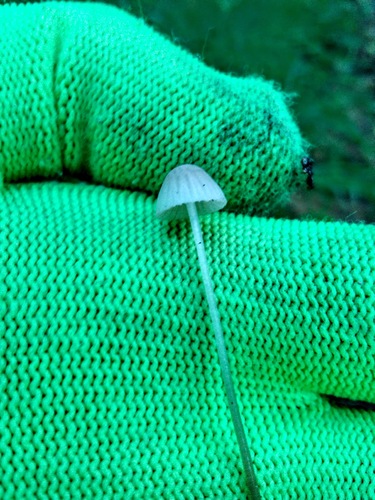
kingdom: Fungi
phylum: Basidiomycota
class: Agaricomycetes
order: Agaricales
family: Mycenaceae
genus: Mycena
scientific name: Mycena epipterygia
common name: Yellowleg bonnet
